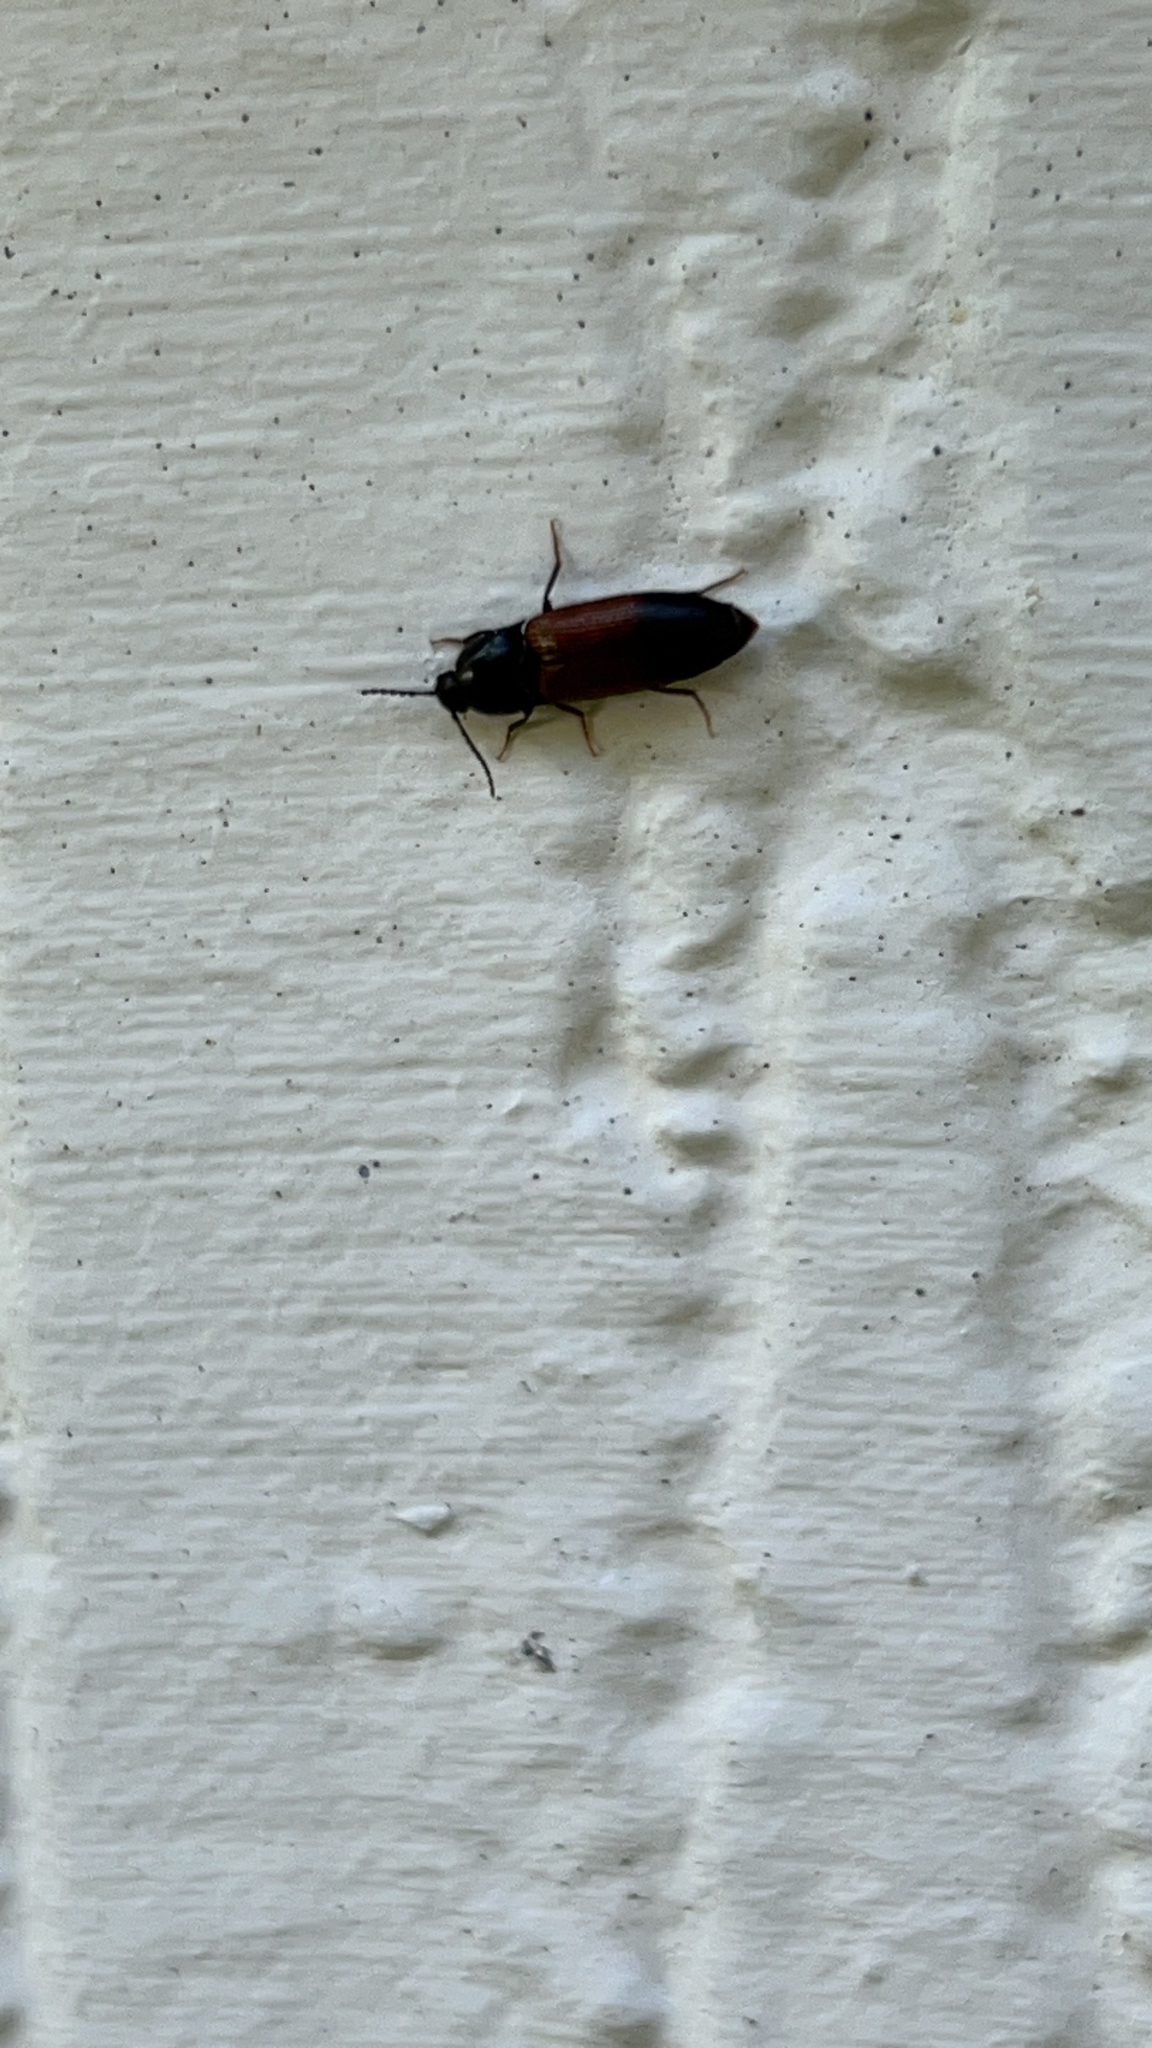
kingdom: Animalia
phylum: Arthropoda
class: Insecta
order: Coleoptera
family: Elateridae
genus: Ampedus
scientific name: Ampedus balteatus
